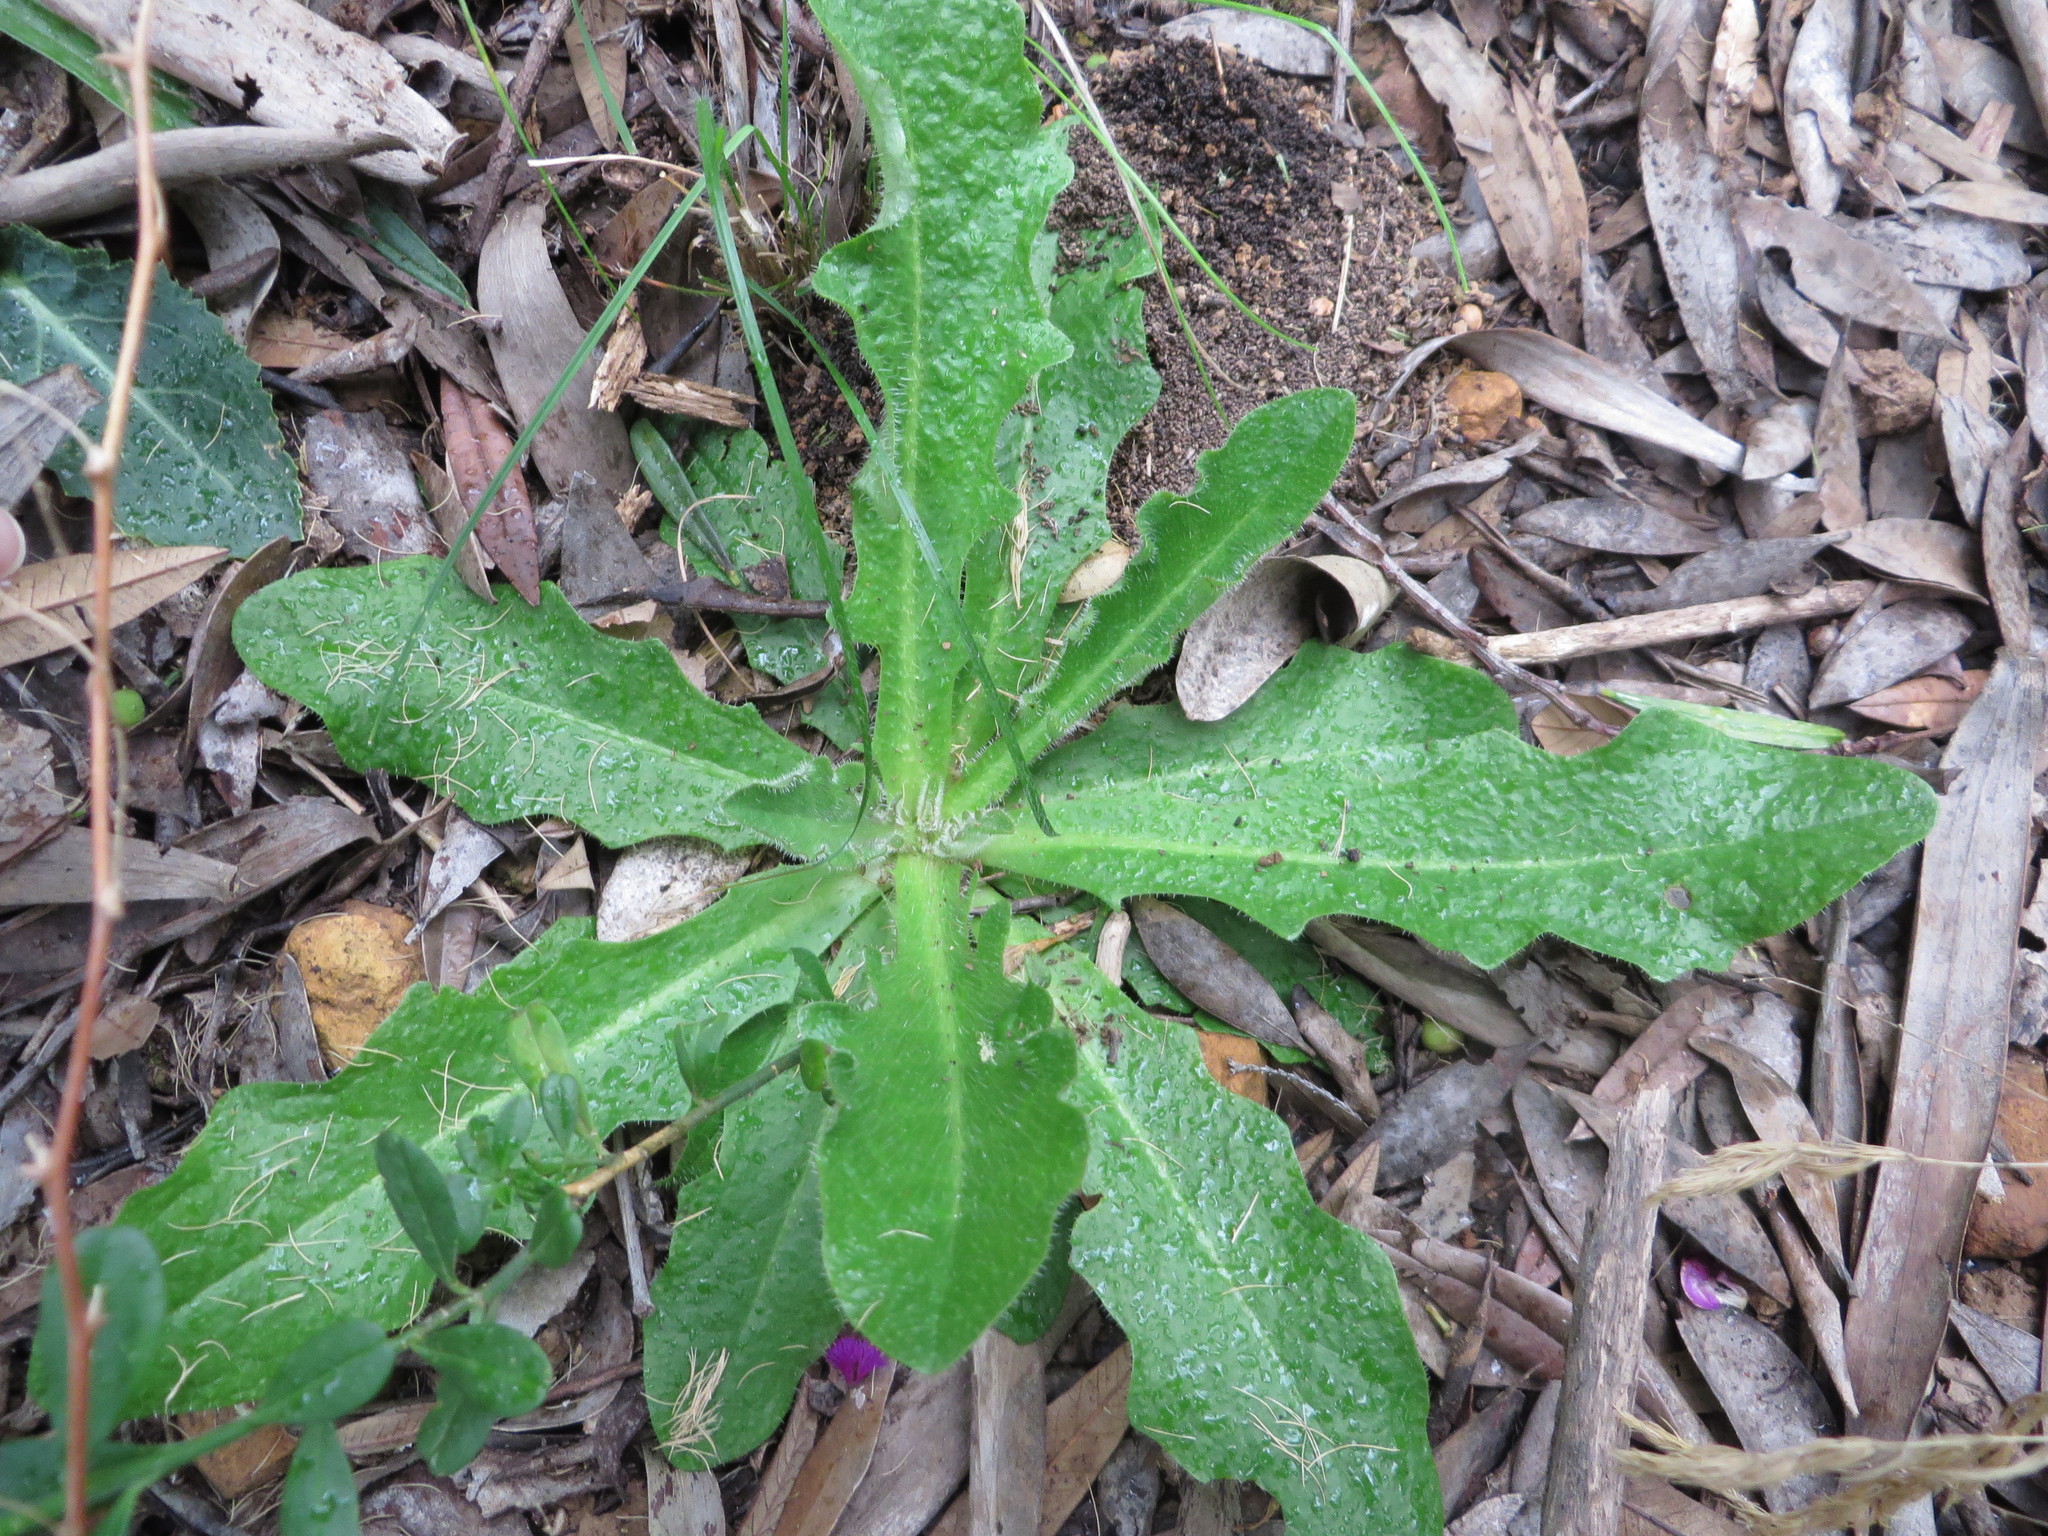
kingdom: Plantae
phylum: Tracheophyta
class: Magnoliopsida
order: Asterales
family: Asteraceae
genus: Hypochaeris
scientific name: Hypochaeris radicata
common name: Flatweed
